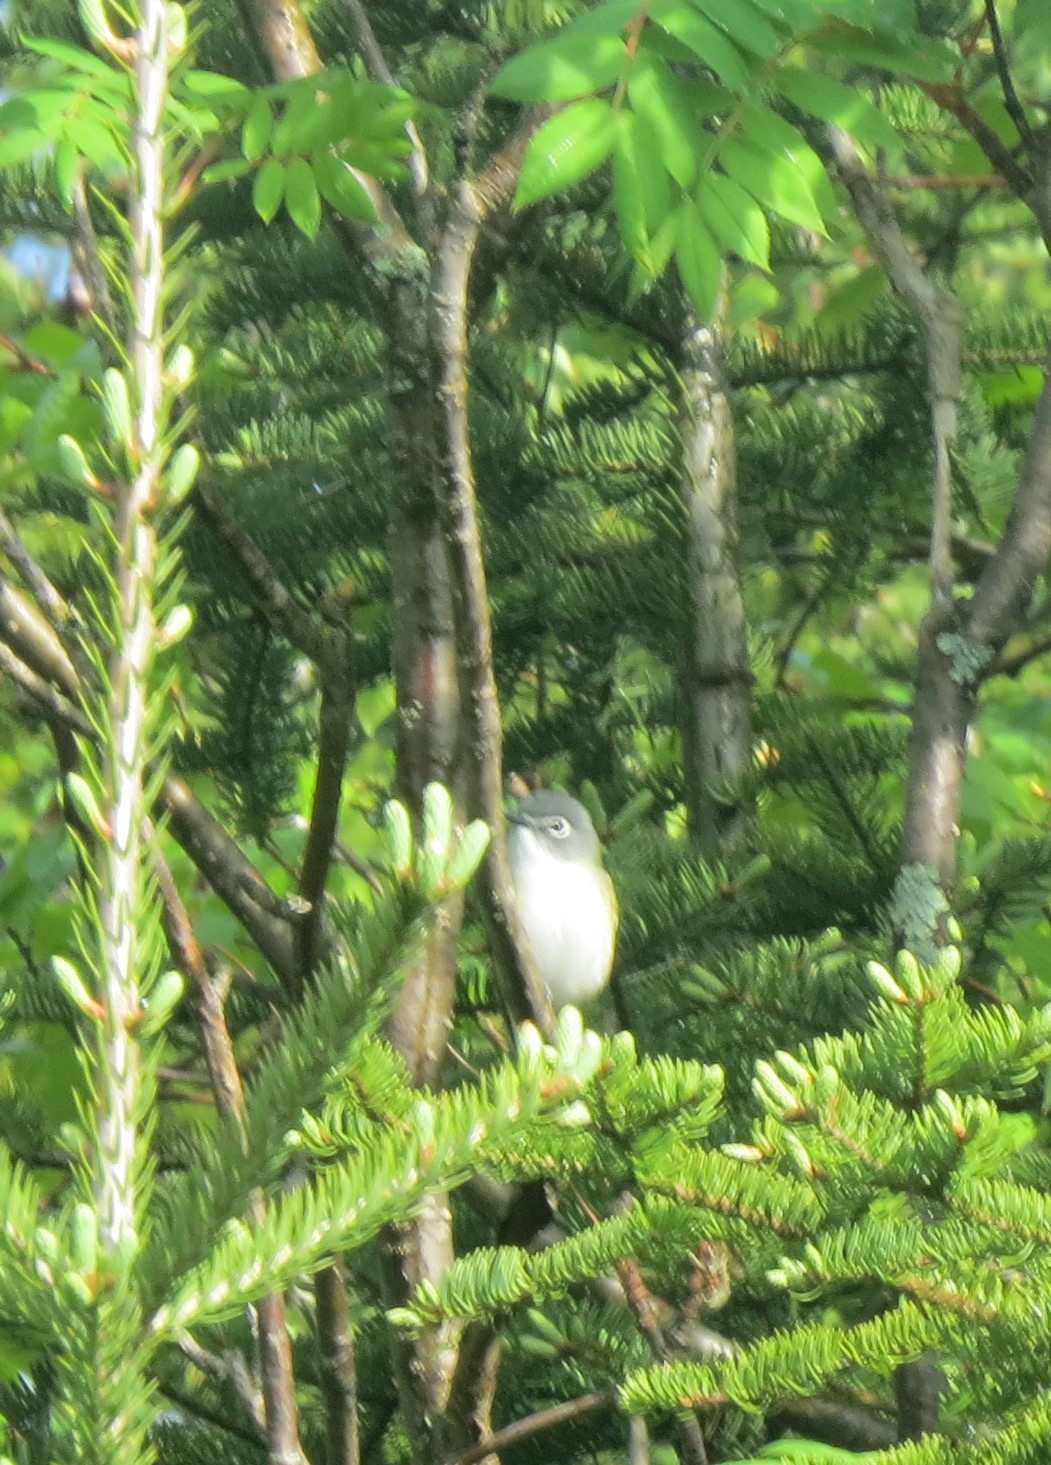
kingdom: Animalia
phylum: Chordata
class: Aves
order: Passeriformes
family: Vireonidae
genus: Vireo
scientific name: Vireo solitarius
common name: Blue-headed vireo
